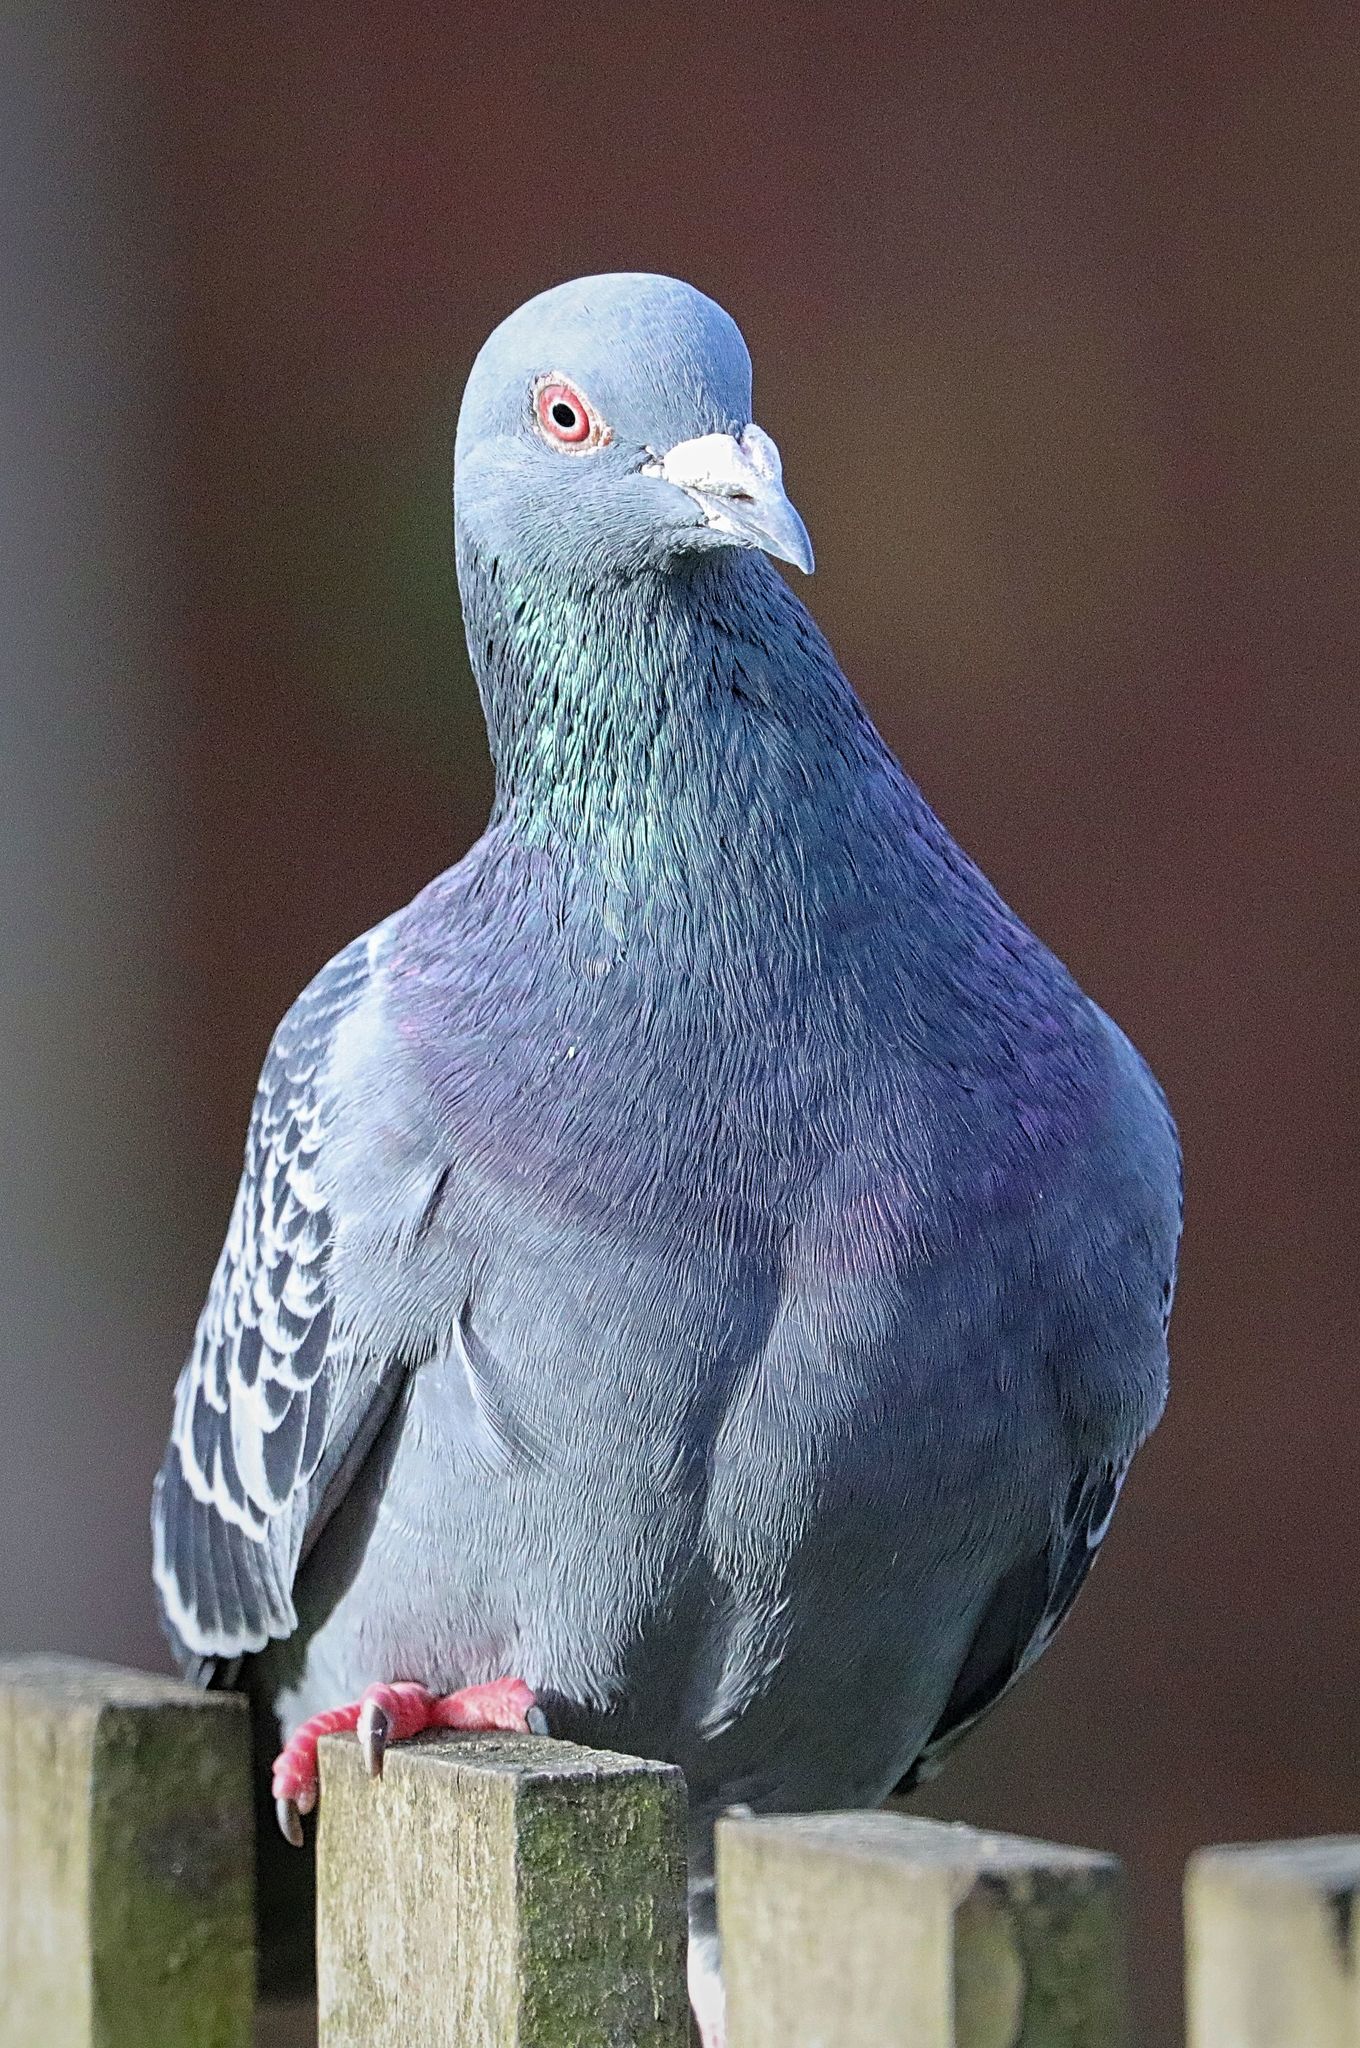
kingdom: Animalia
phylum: Chordata
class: Aves
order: Columbiformes
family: Columbidae
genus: Columba
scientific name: Columba livia
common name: Rock pigeon
